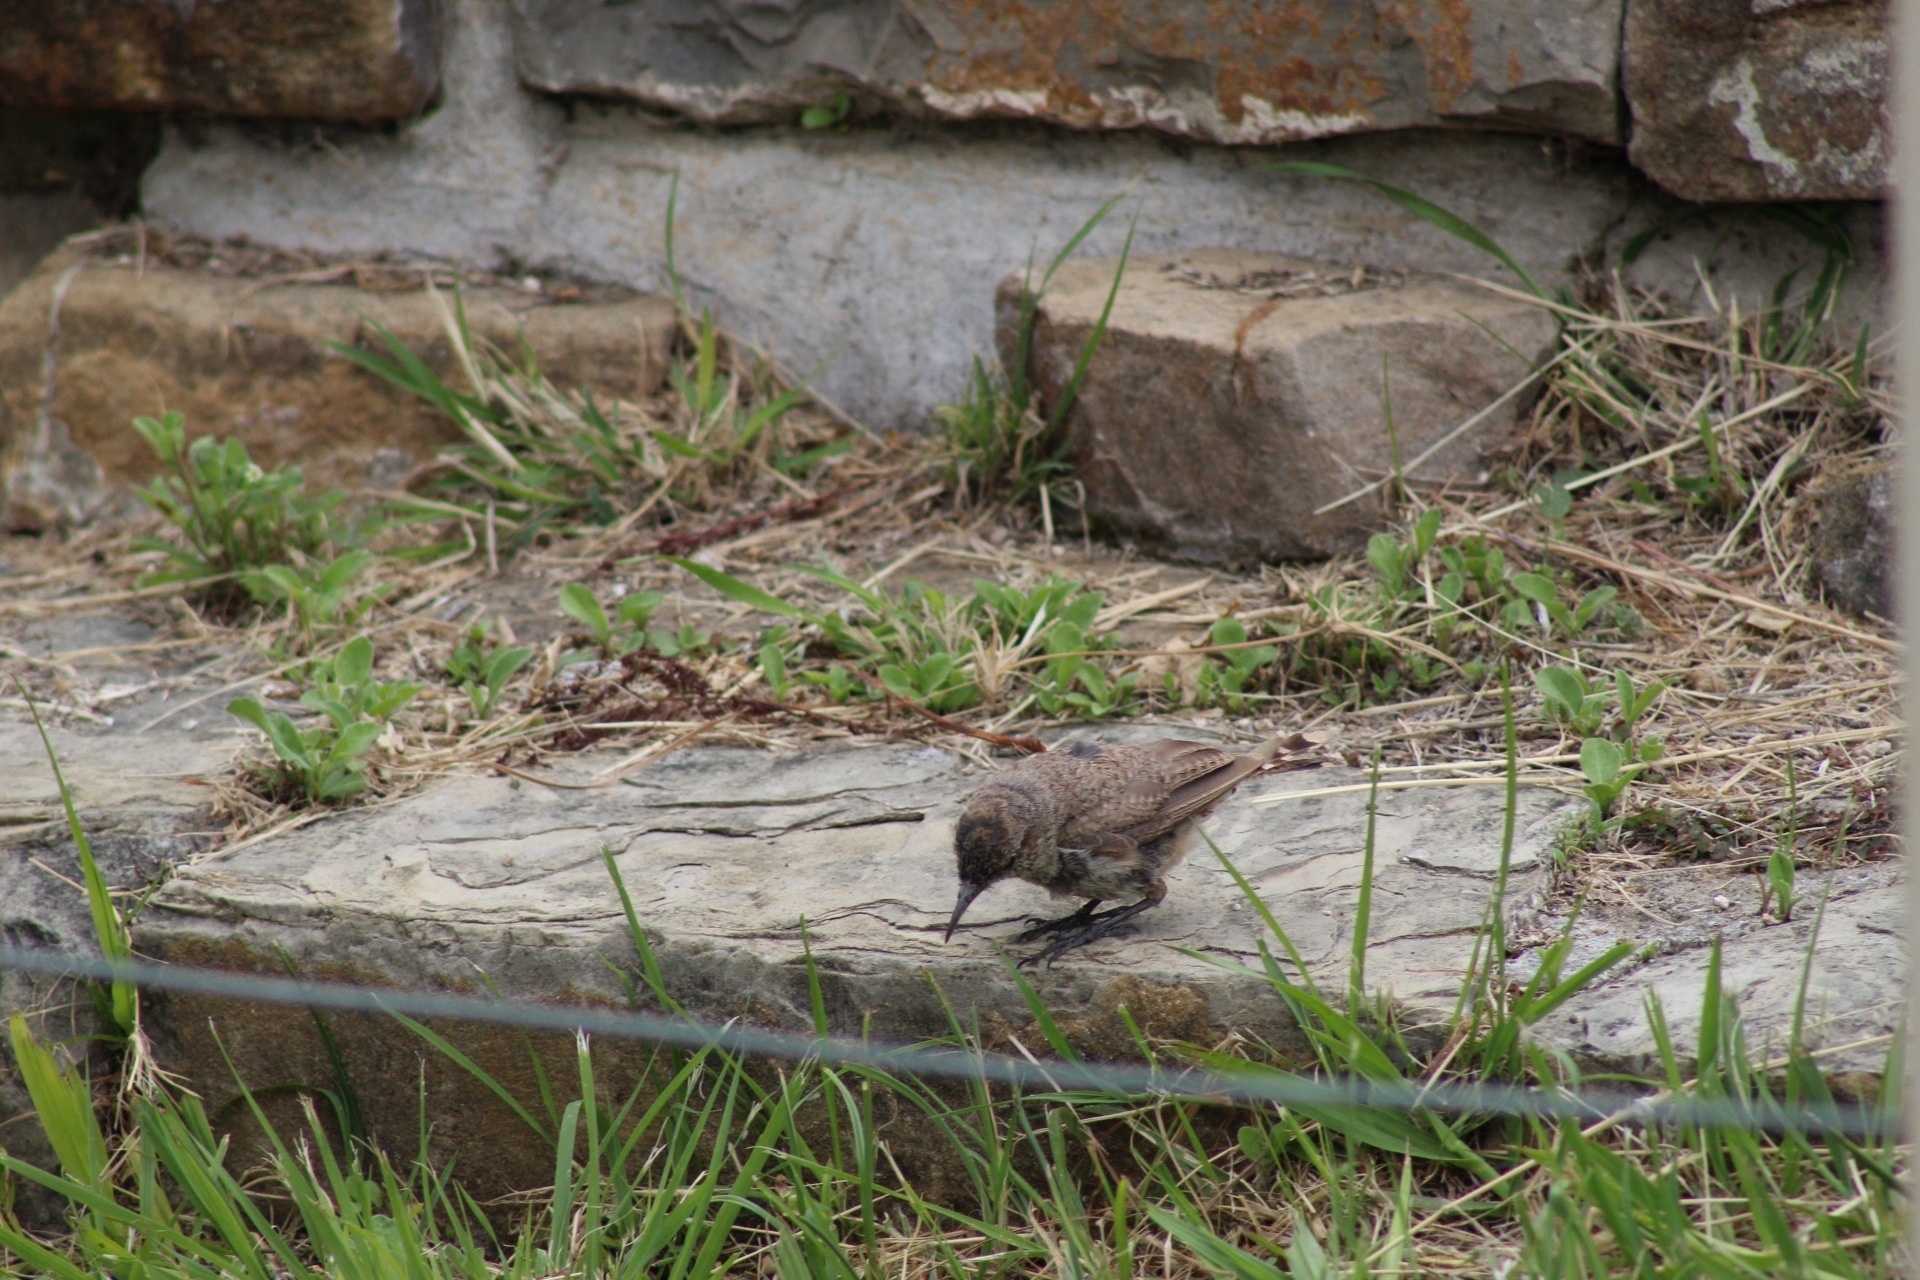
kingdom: Animalia
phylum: Chordata
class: Aves
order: Passeriformes
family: Troglodytidae
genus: Salpinctes
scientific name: Salpinctes obsoletus
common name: Rock wren
